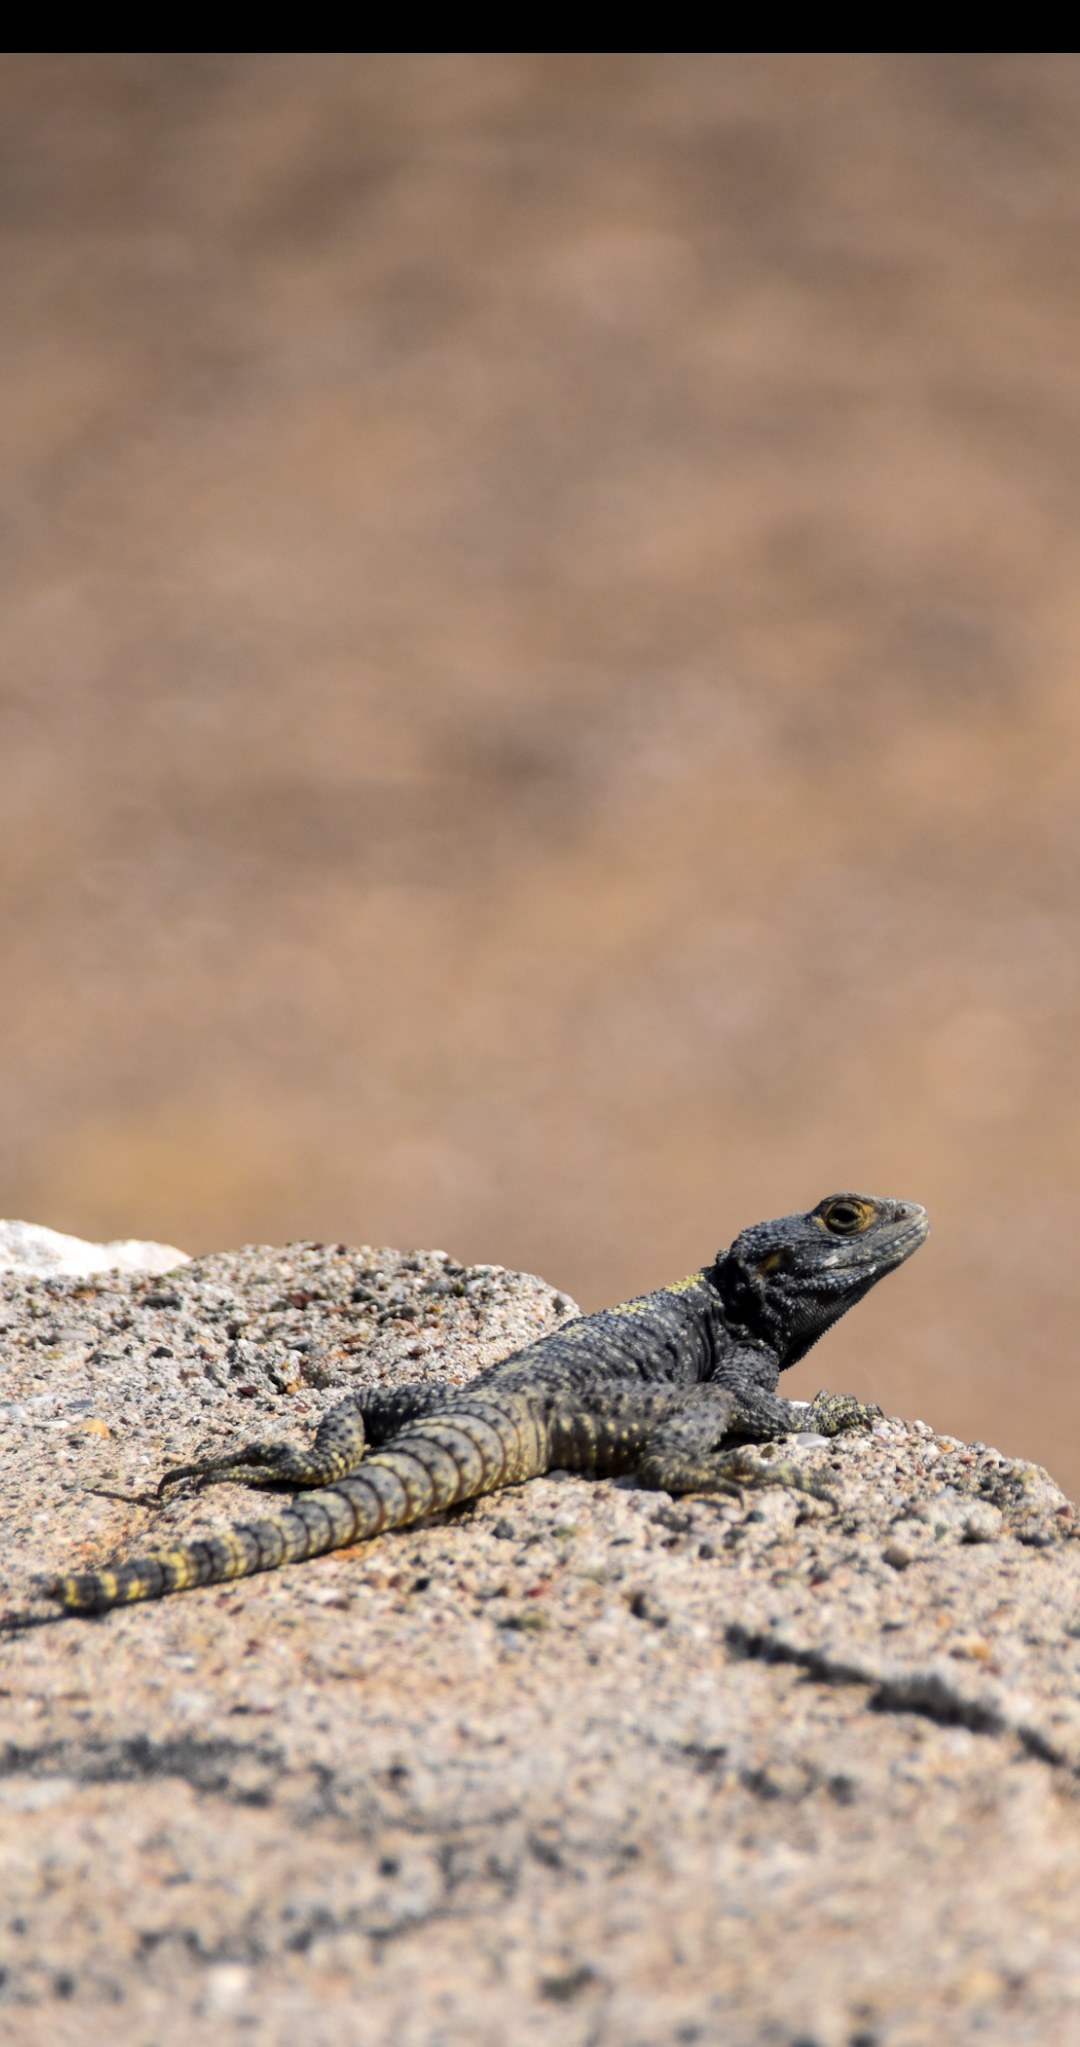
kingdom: Animalia
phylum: Chordata
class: Squamata
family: Agamidae
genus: Stellagama
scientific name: Stellagama stellio
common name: Starred agama
